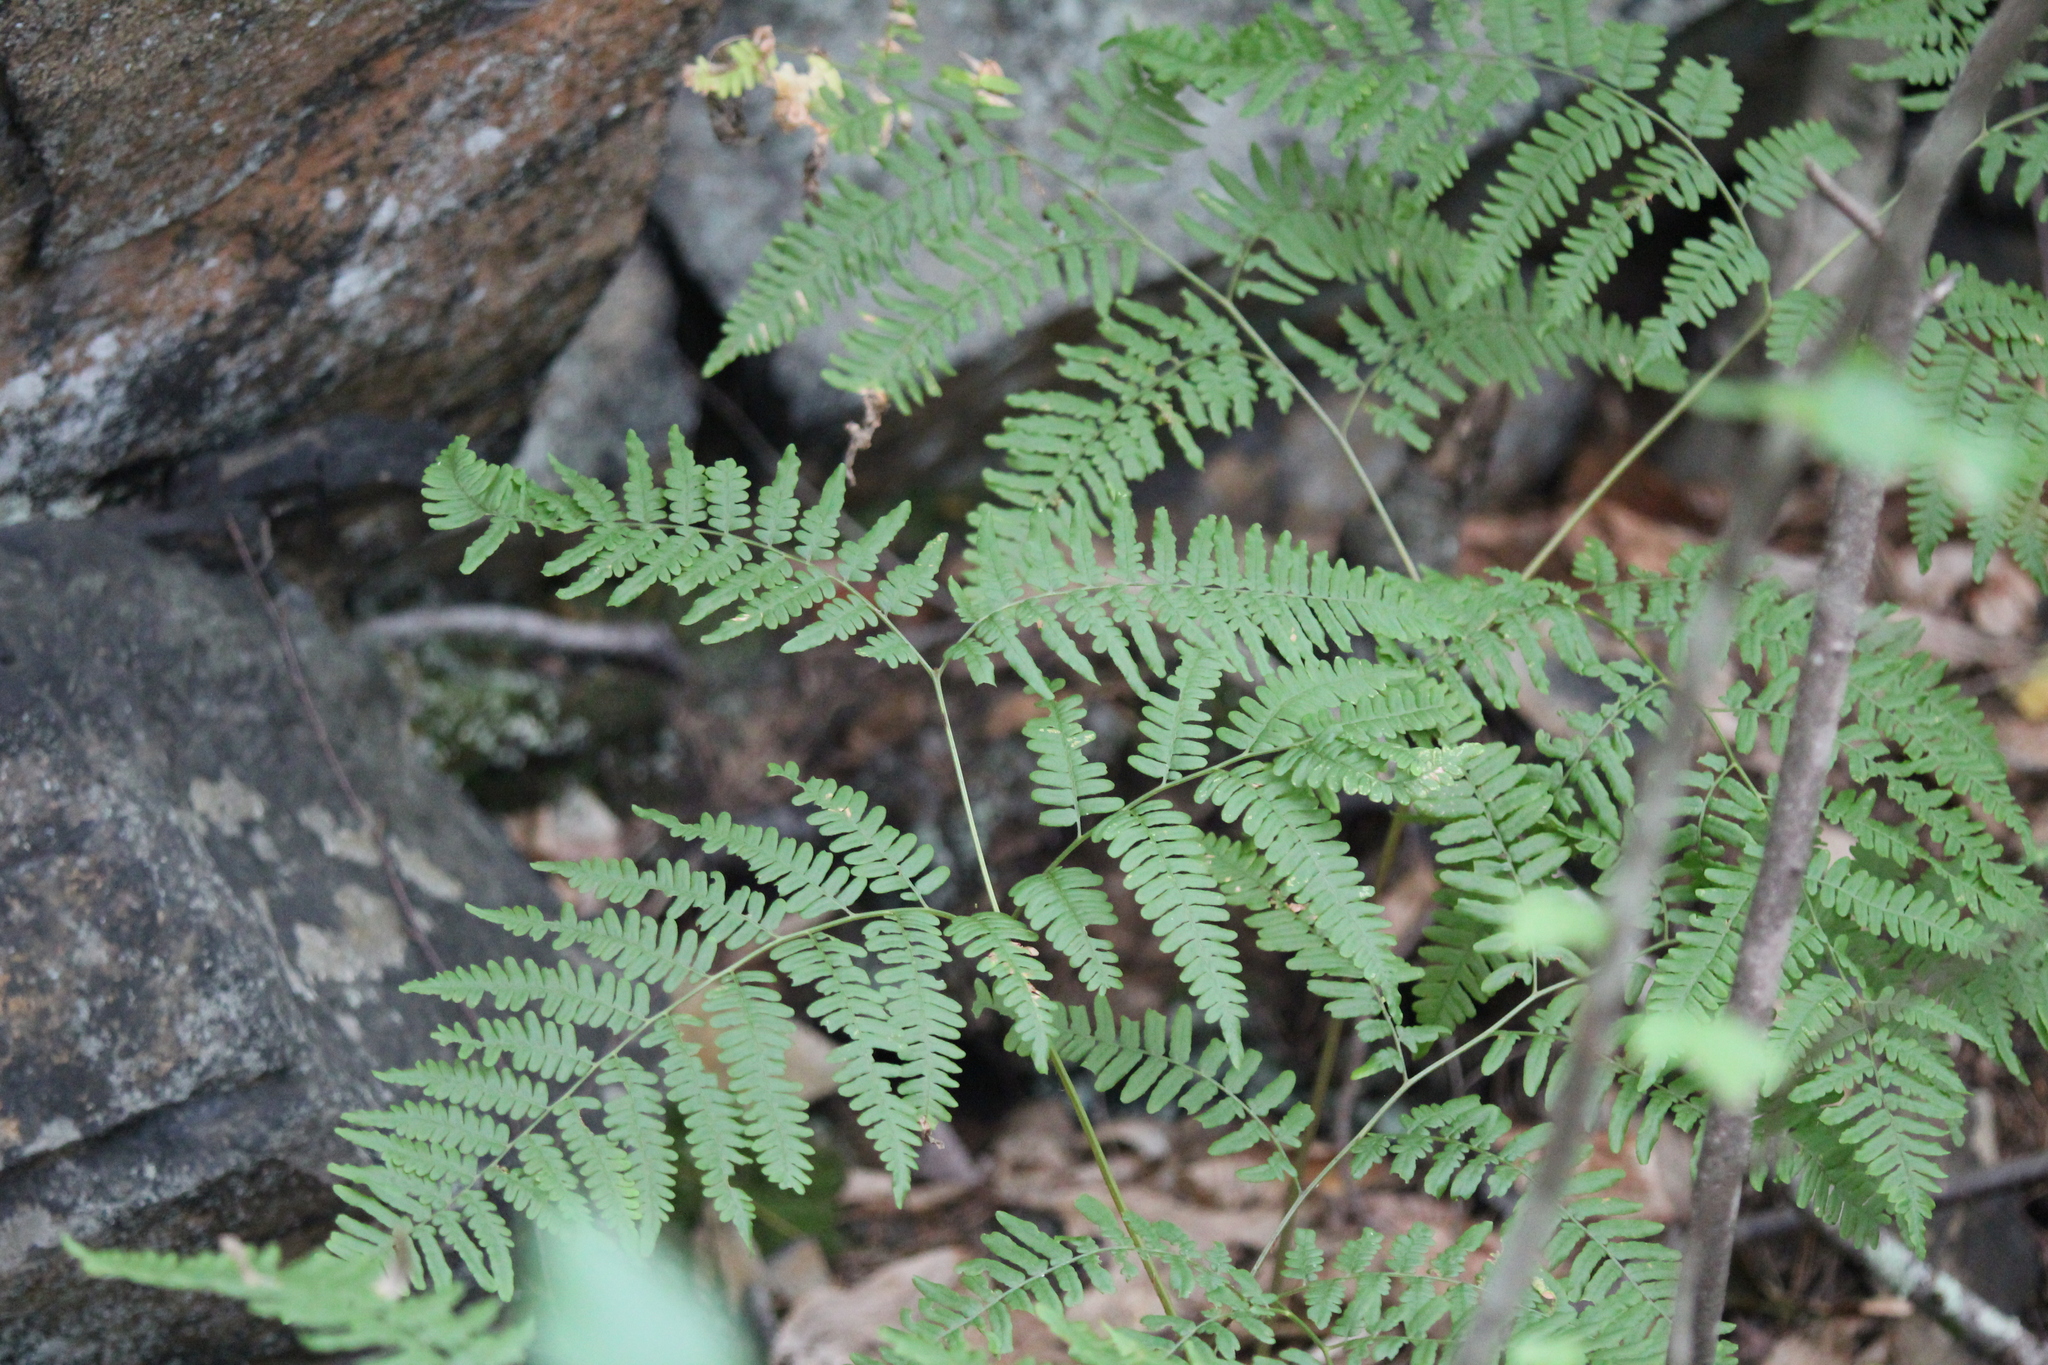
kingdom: Plantae
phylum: Tracheophyta
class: Polypodiopsida
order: Polypodiales
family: Dennstaedtiaceae
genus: Pteridium
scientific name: Pteridium aquilinum
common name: Bracken
